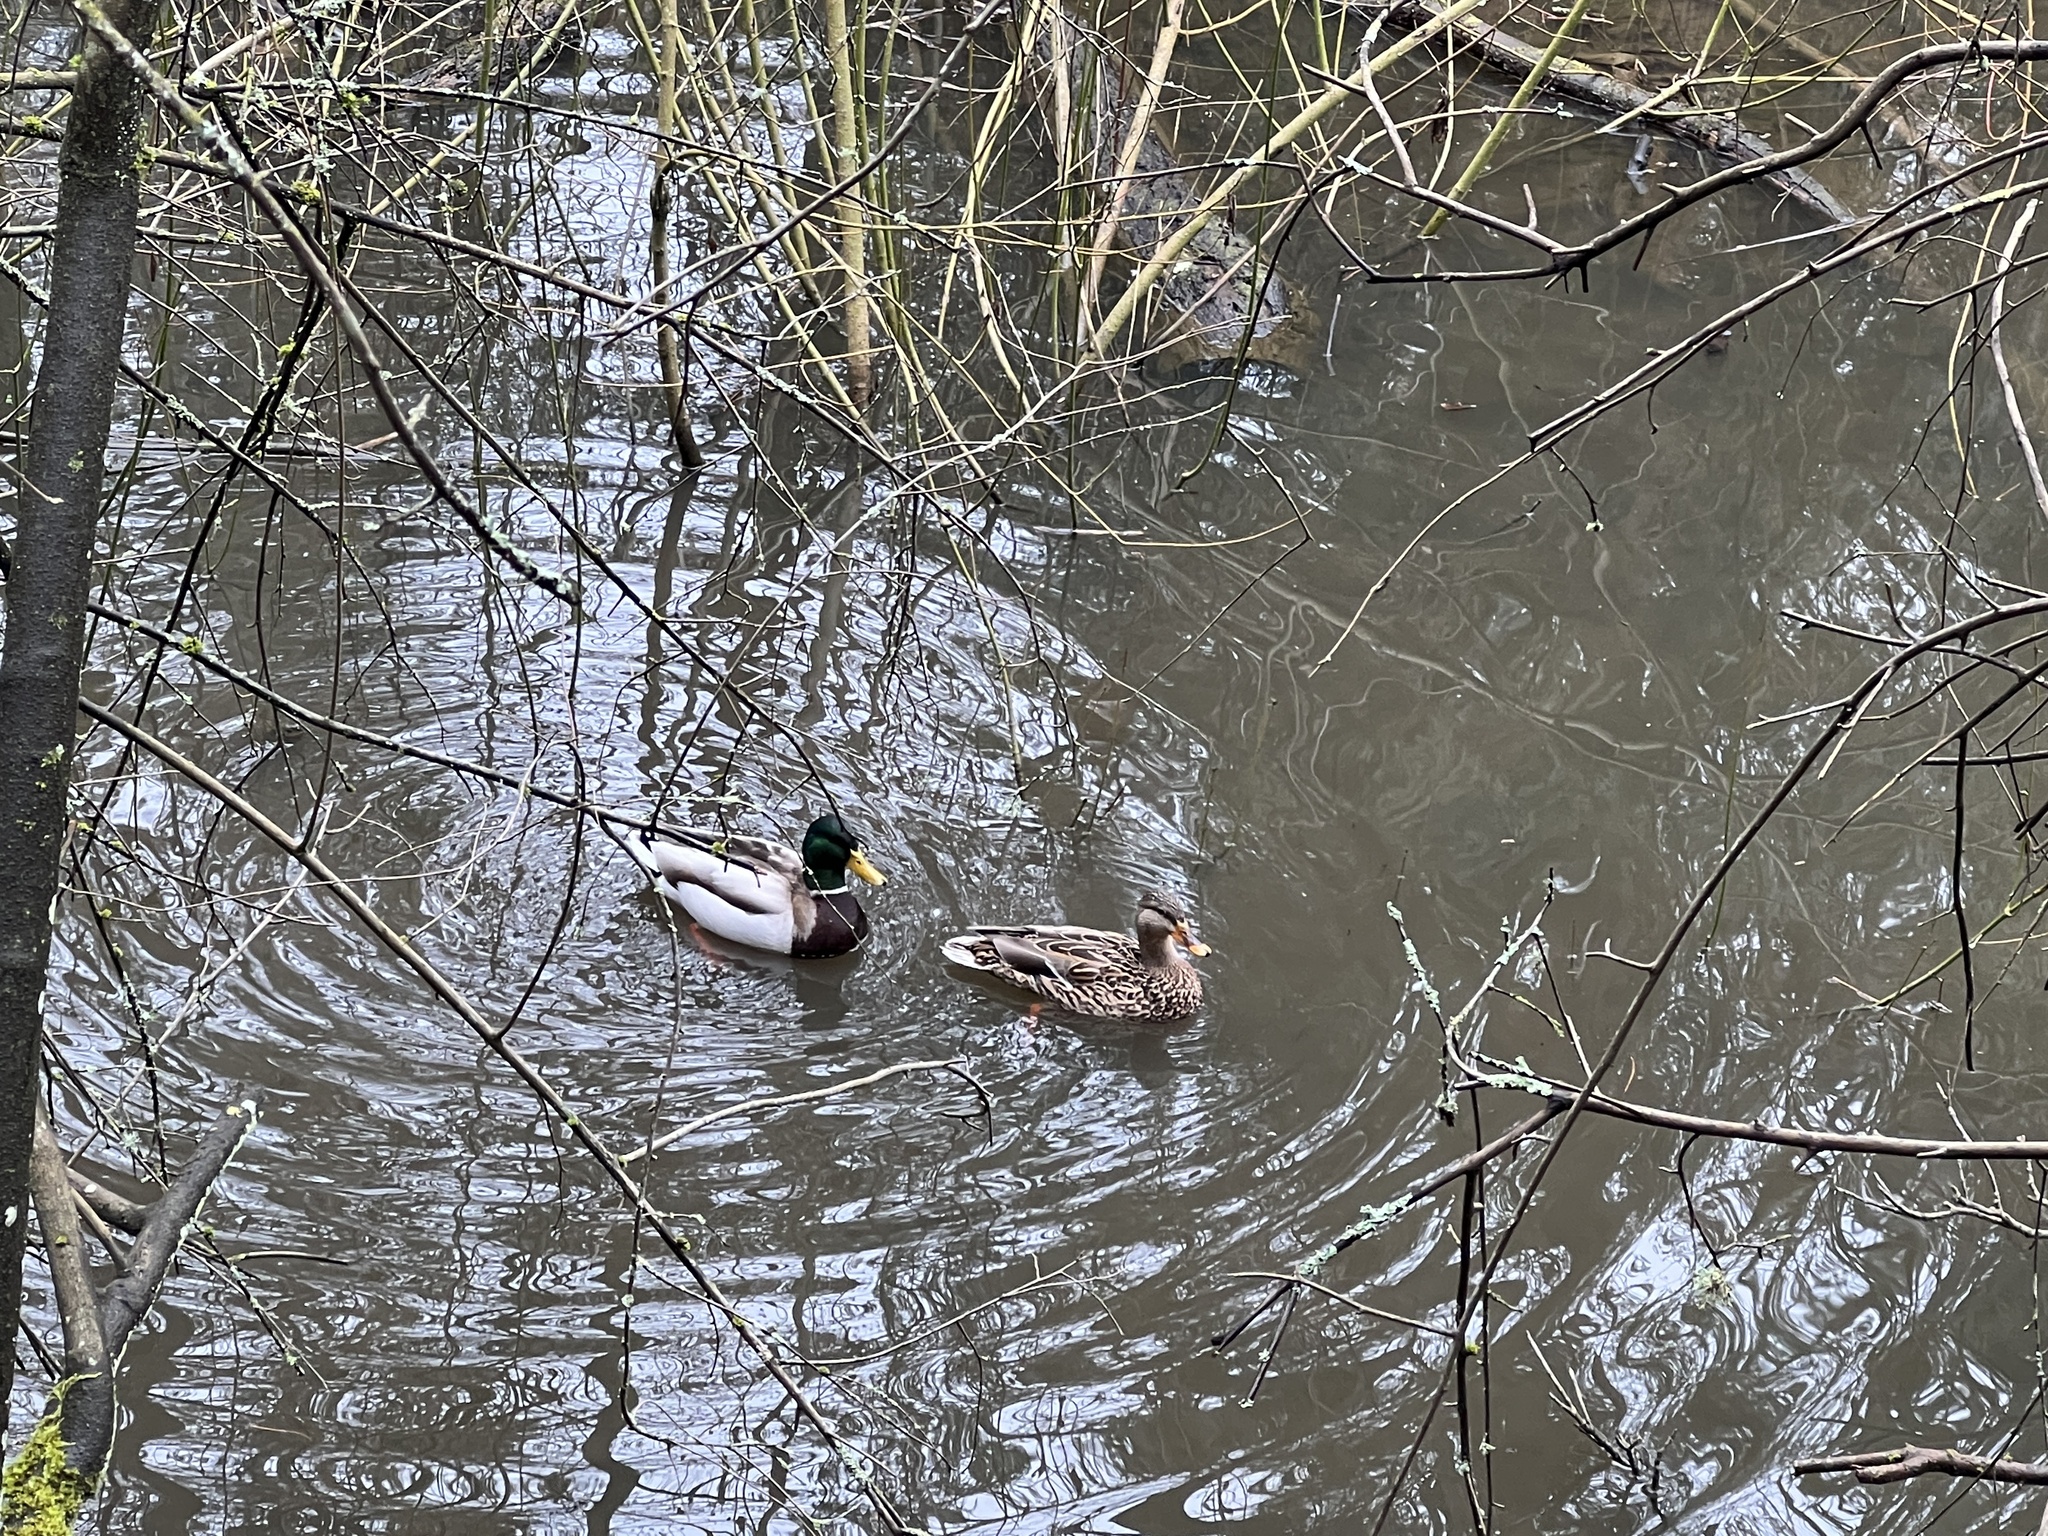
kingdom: Animalia
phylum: Chordata
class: Aves
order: Anseriformes
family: Anatidae
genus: Anas
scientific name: Anas platyrhynchos
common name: Mallard
